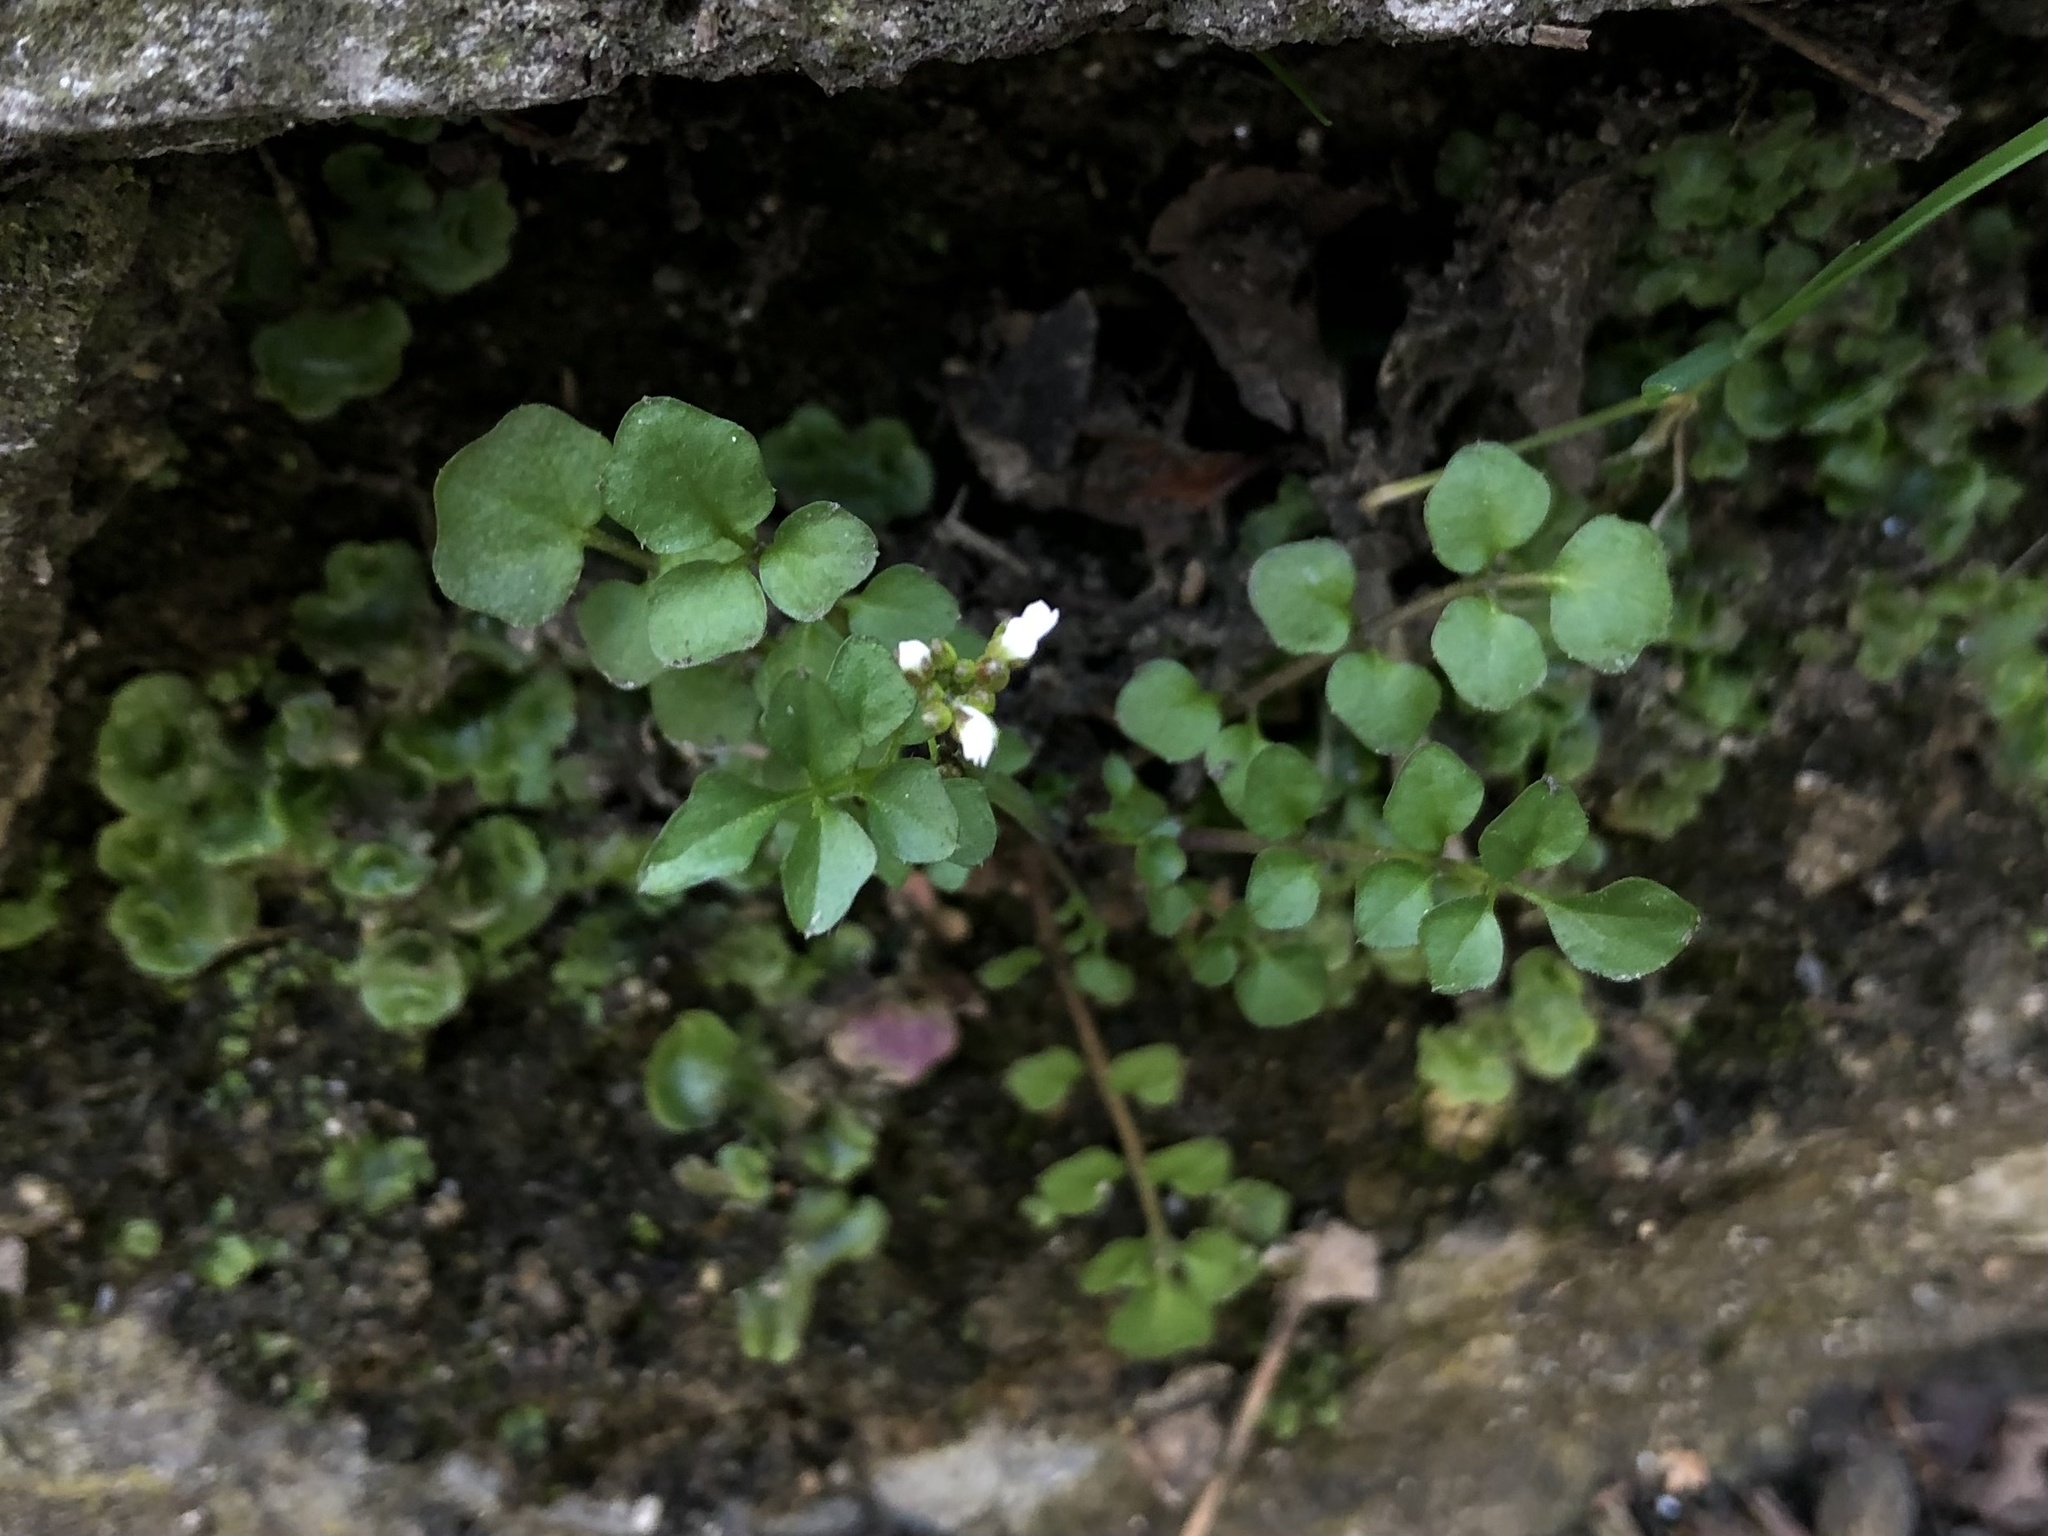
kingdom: Plantae
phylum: Tracheophyta
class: Magnoliopsida
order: Brassicales
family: Brassicaceae
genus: Cardamine
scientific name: Cardamine hirsuta
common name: Hairy bittercress
